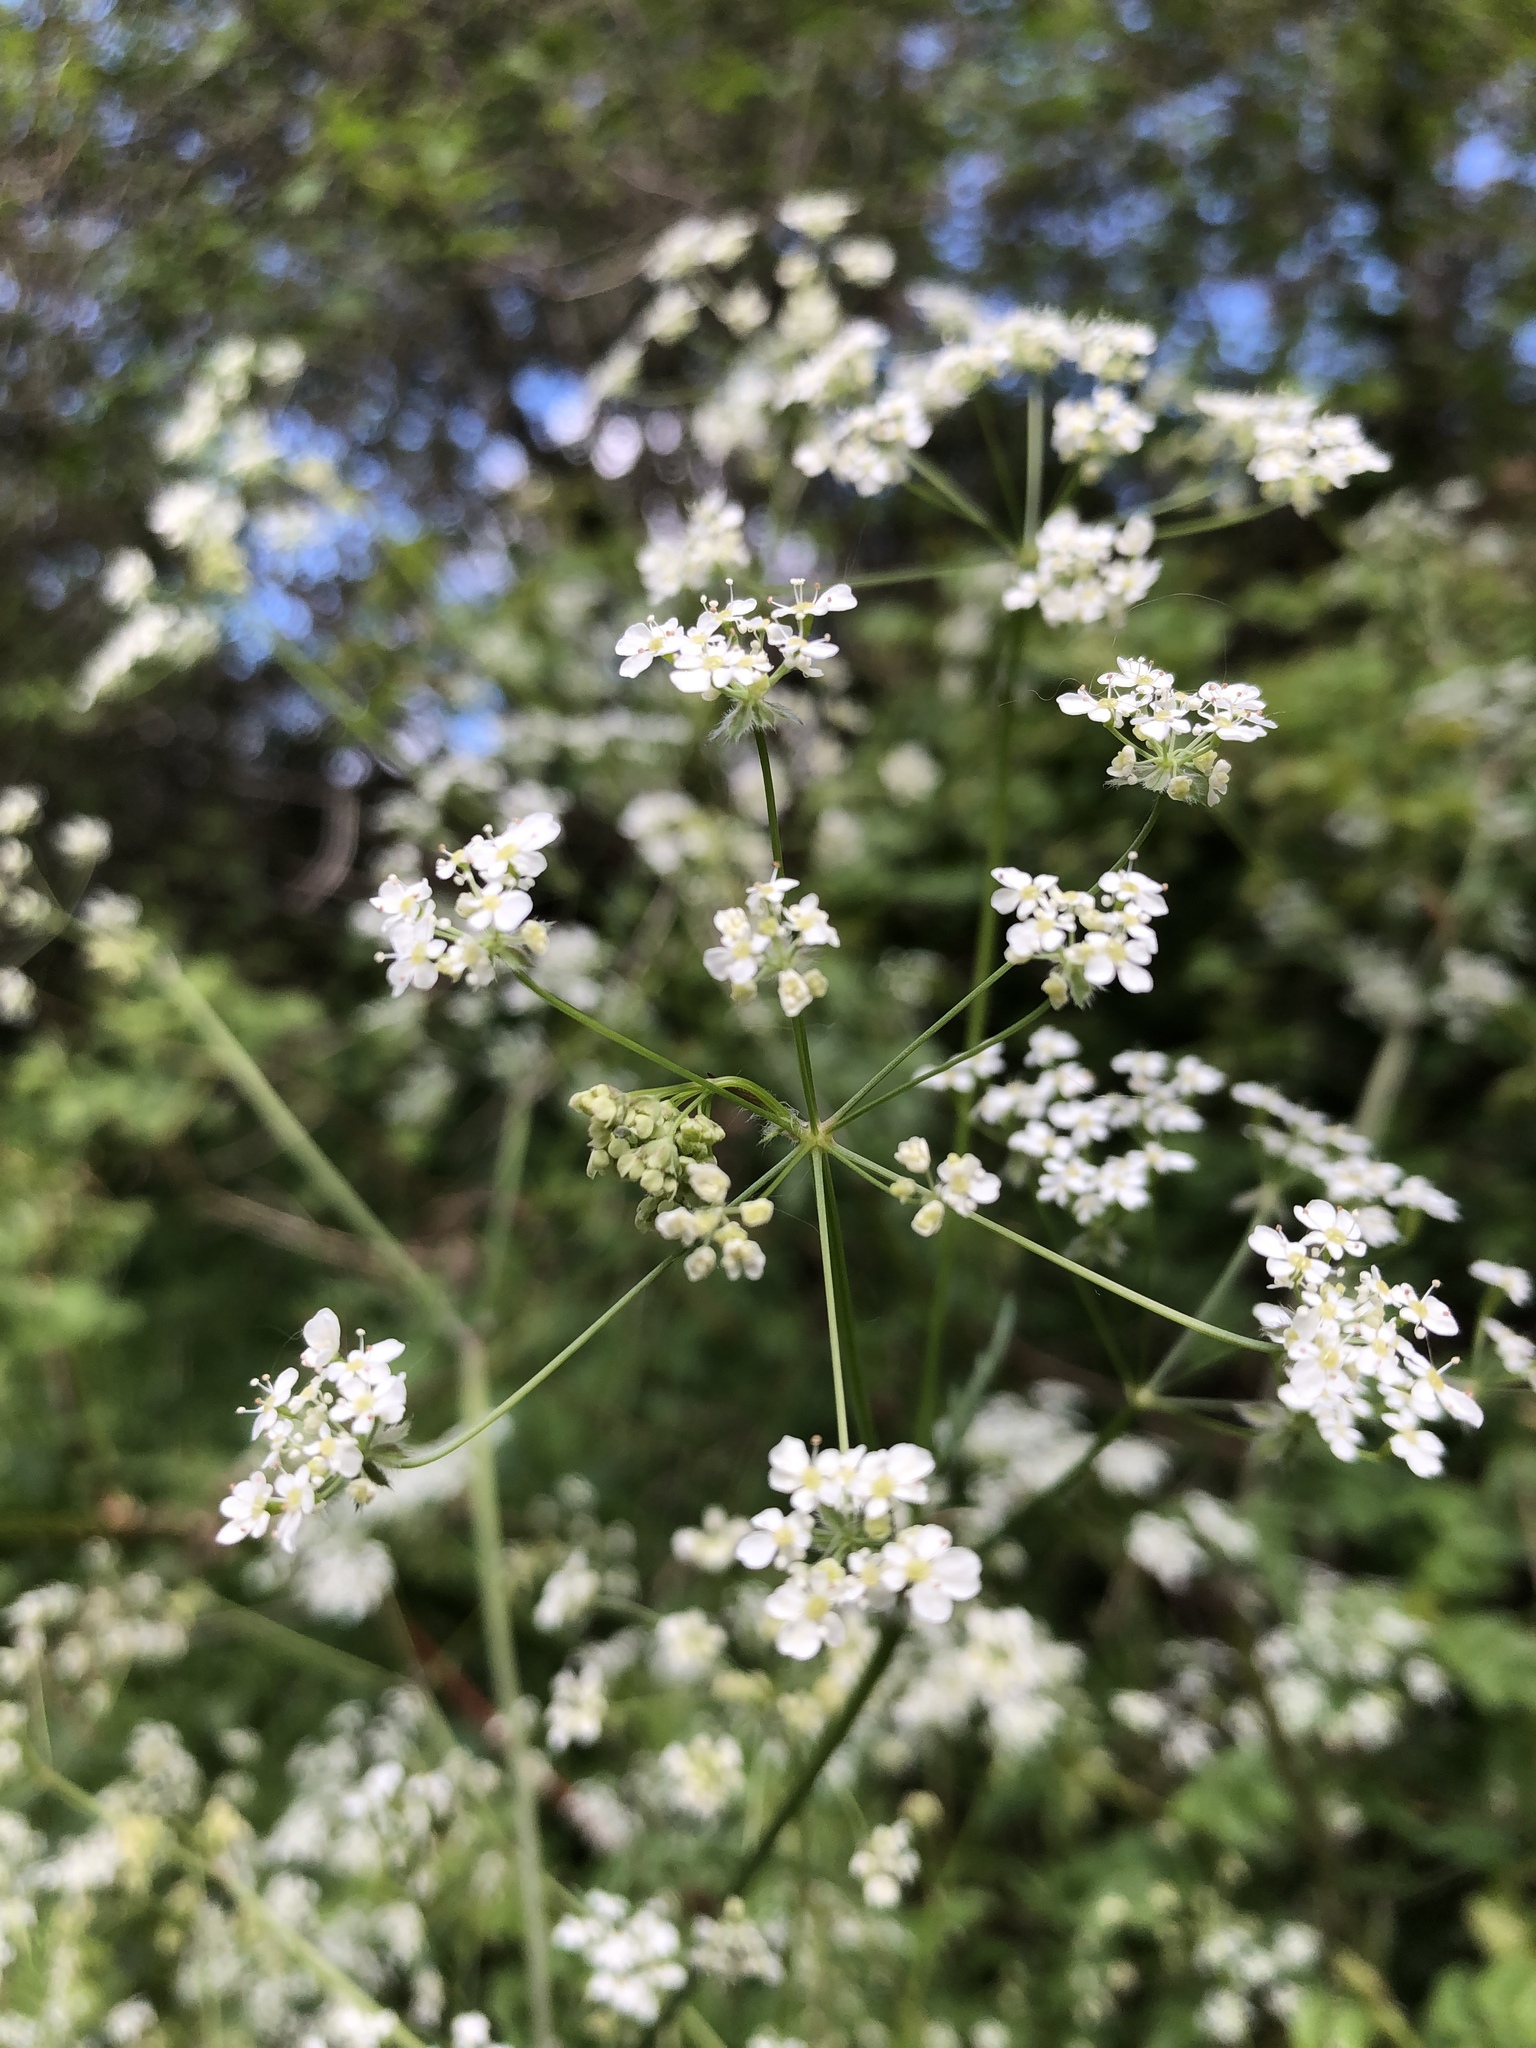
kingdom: Plantae
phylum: Tracheophyta
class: Magnoliopsida
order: Apiales
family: Apiaceae
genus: Anthriscus
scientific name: Anthriscus sylvestris
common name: Cow parsley
